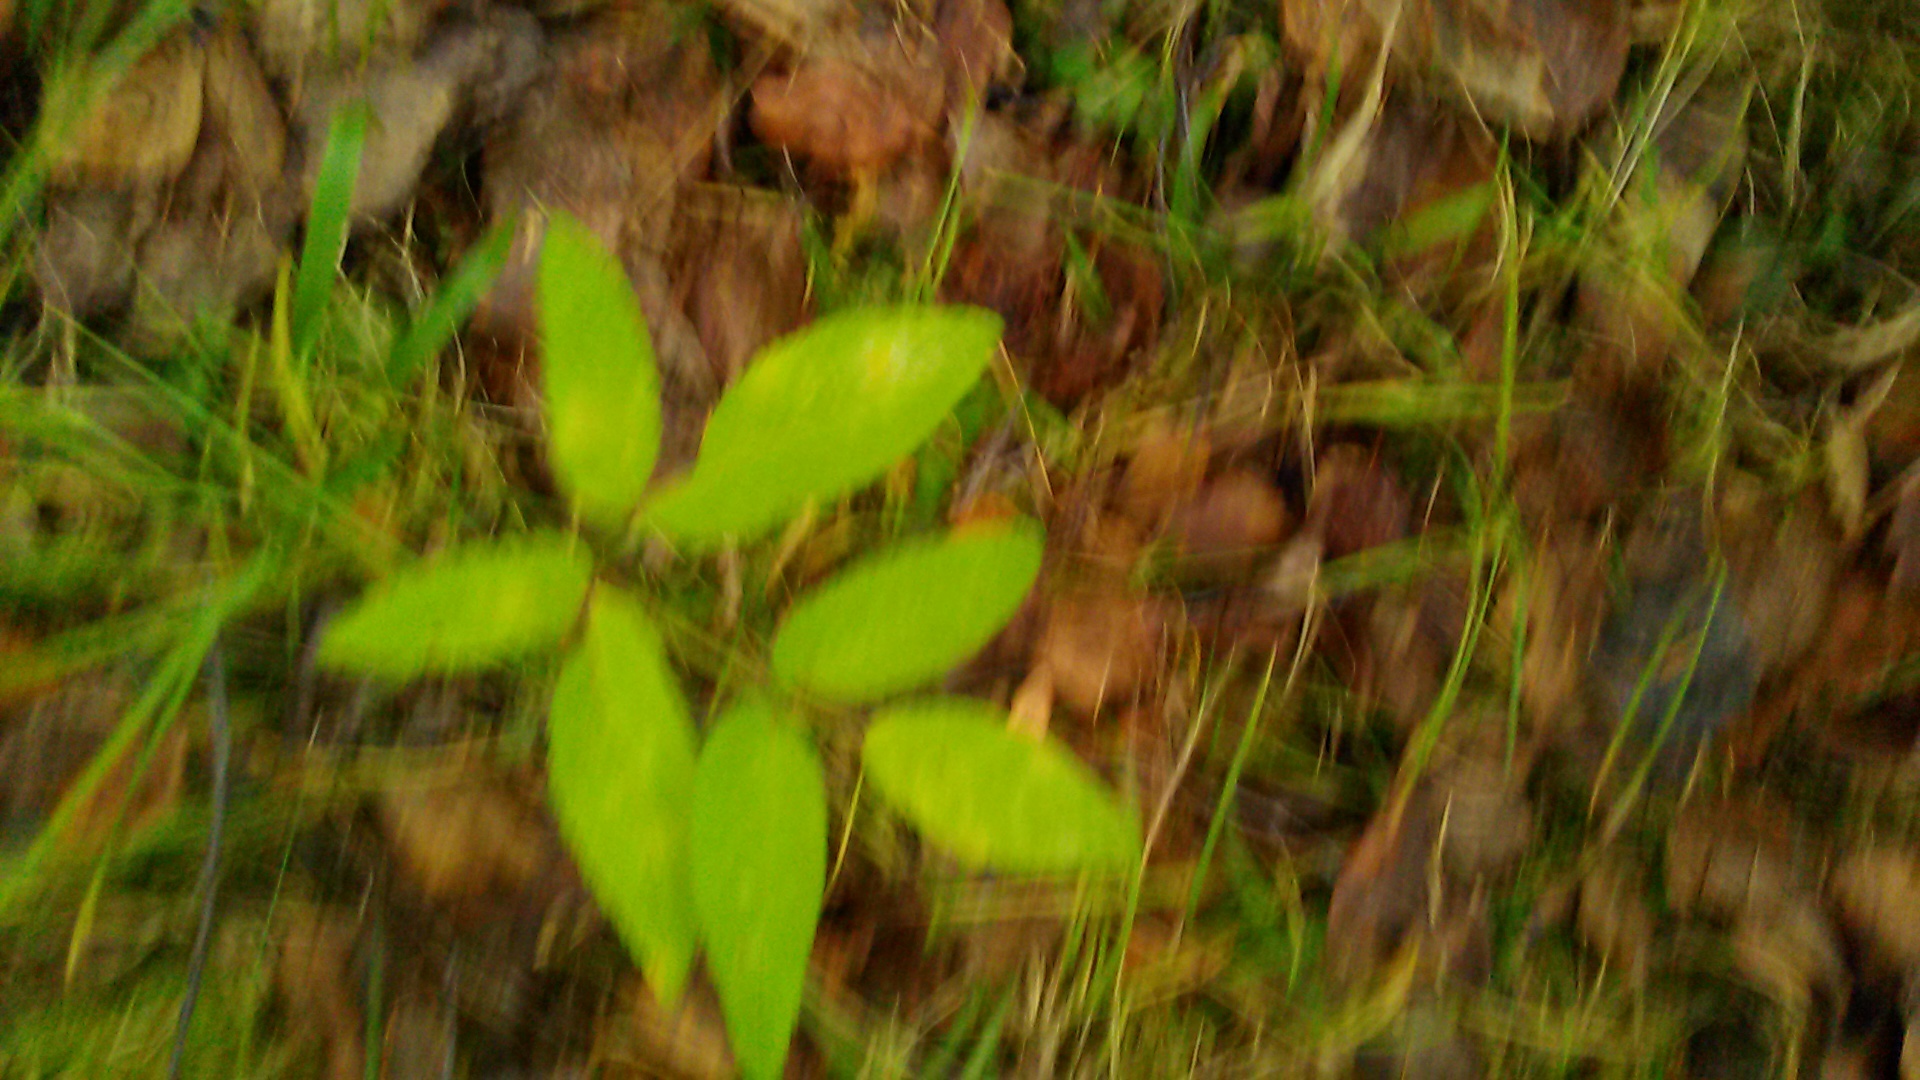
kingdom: Plantae
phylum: Tracheophyta
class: Magnoliopsida
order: Apiales
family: Apiaceae
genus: Angelica
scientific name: Angelica sylvestris
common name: Wild angelica
